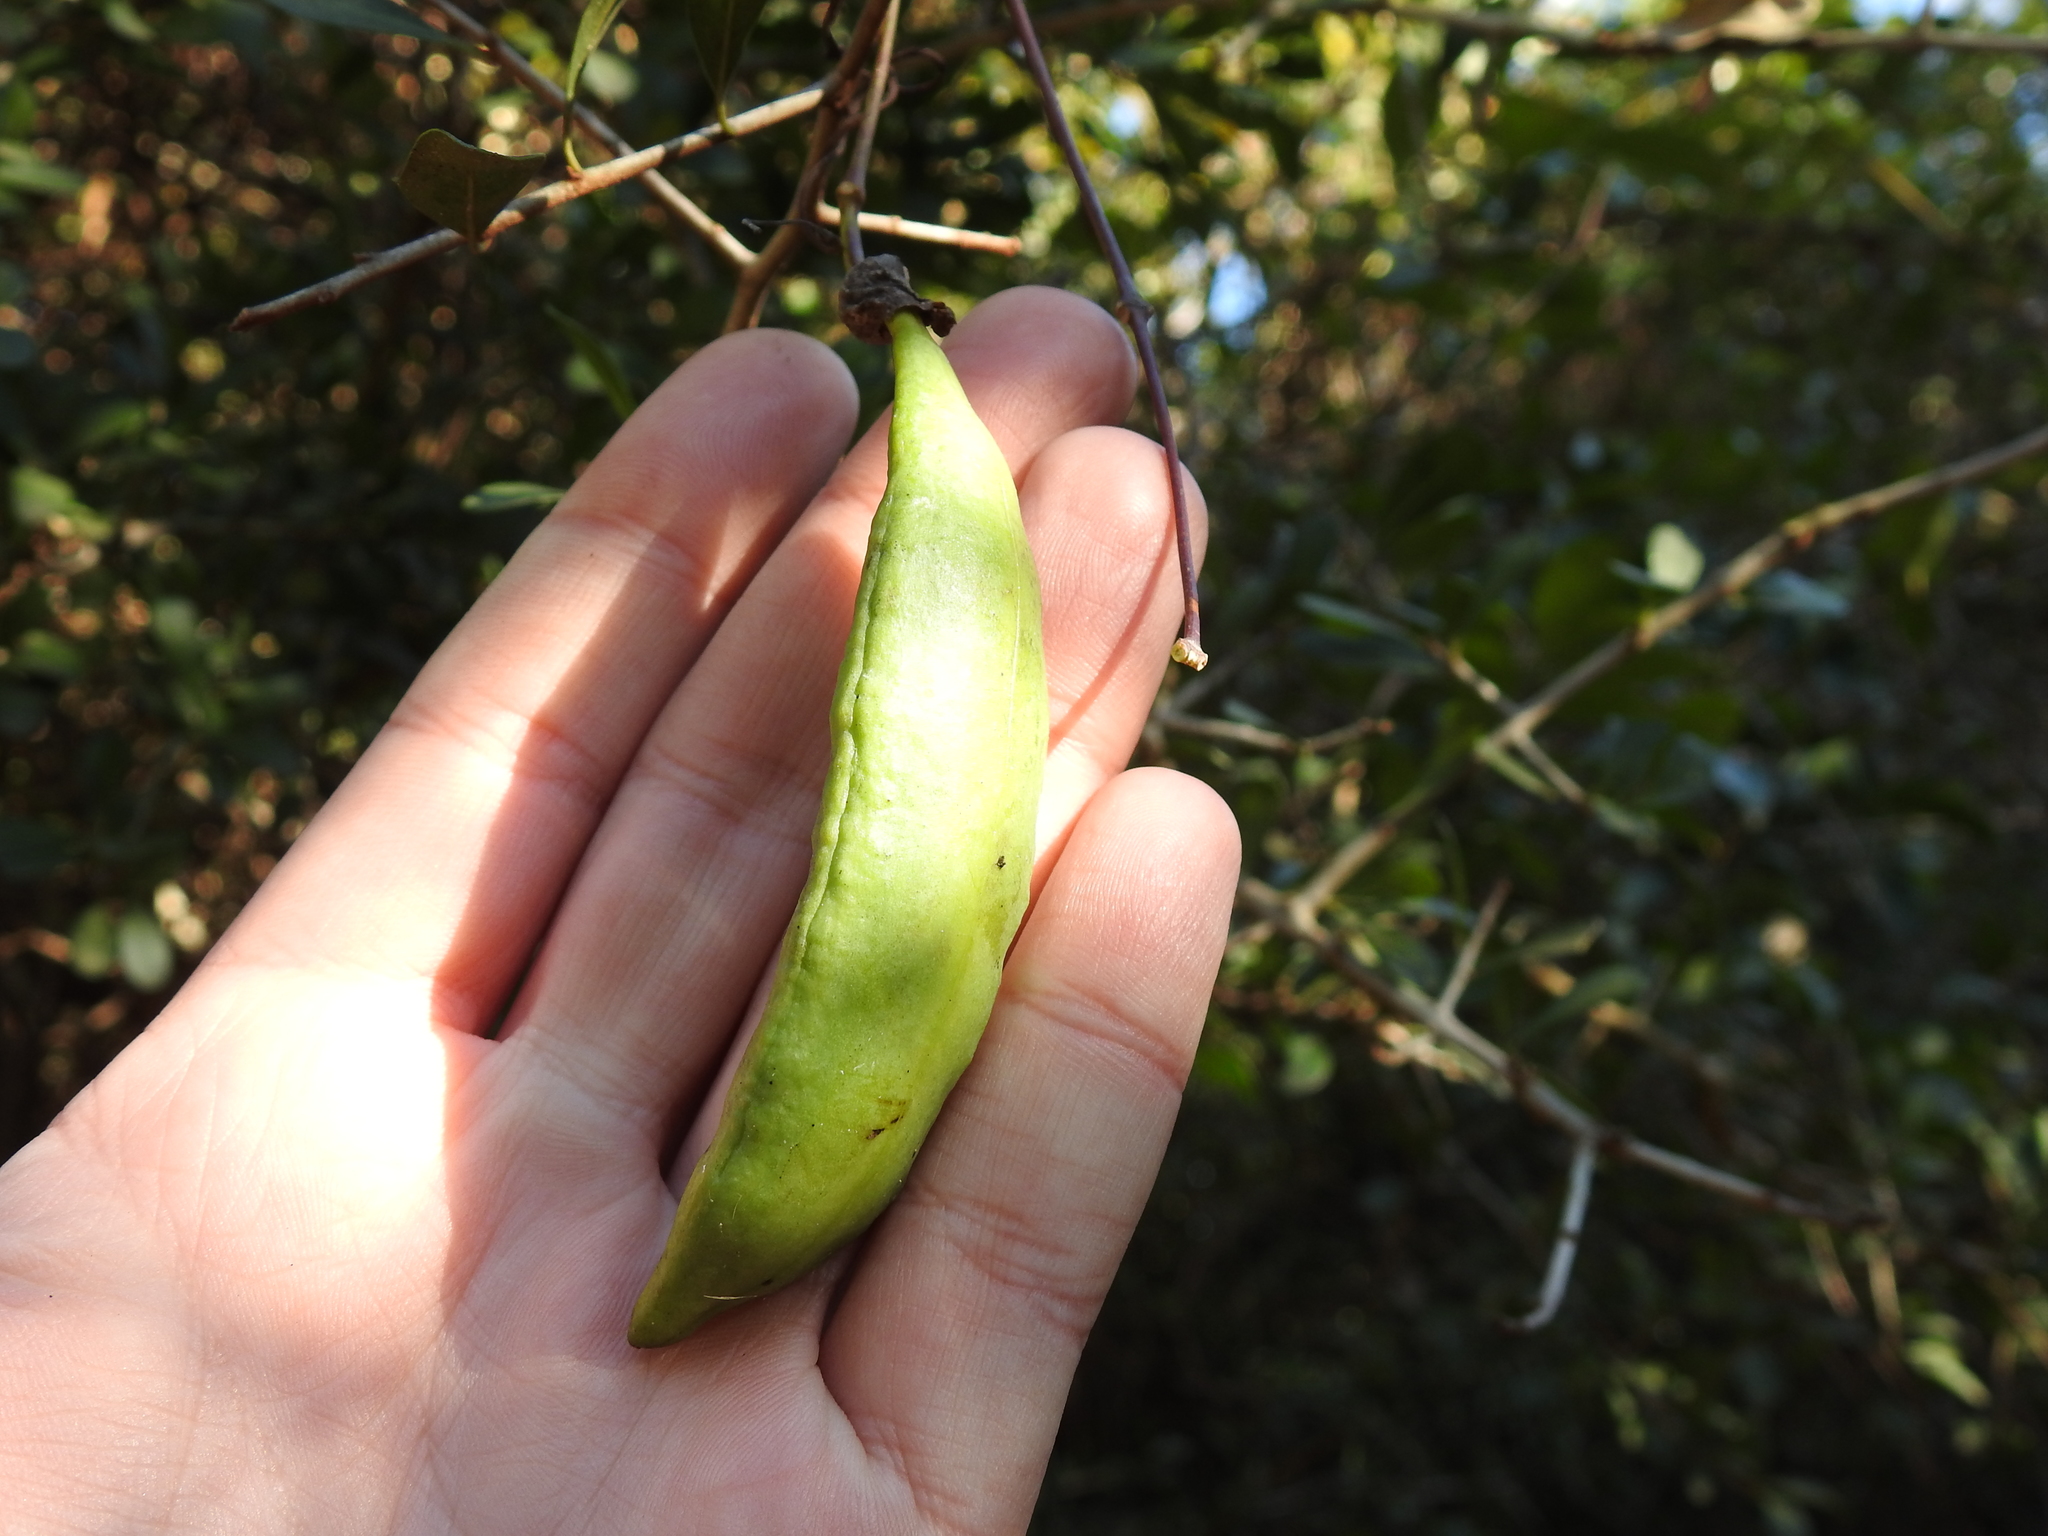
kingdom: Plantae
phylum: Tracheophyta
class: Magnoliopsida
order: Lamiales
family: Bignoniaceae
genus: Dolichandra
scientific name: Dolichandra cynanchoides
